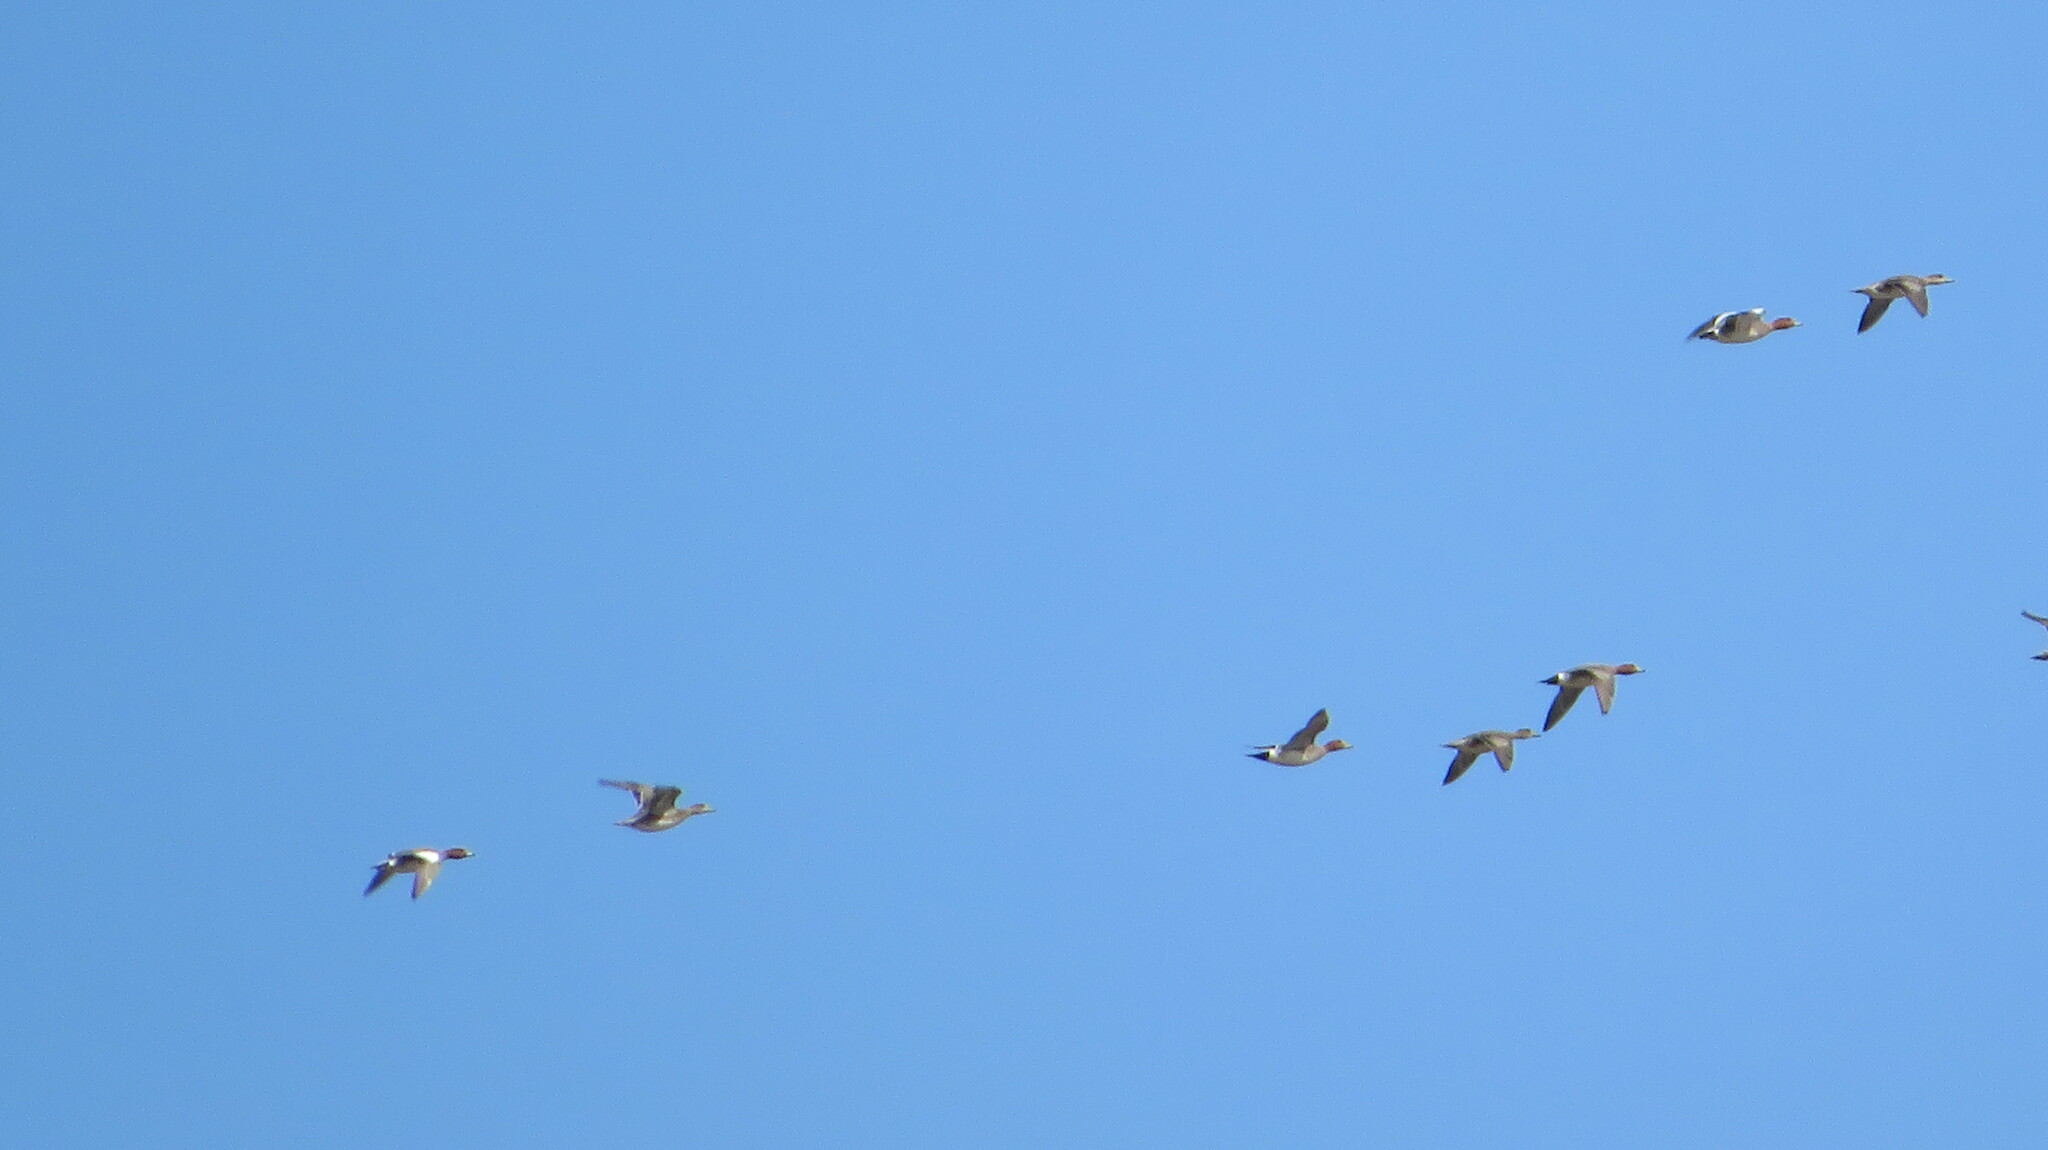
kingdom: Animalia
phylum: Chordata
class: Aves
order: Anseriformes
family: Anatidae
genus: Mareca
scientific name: Mareca penelope
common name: Eurasian wigeon
